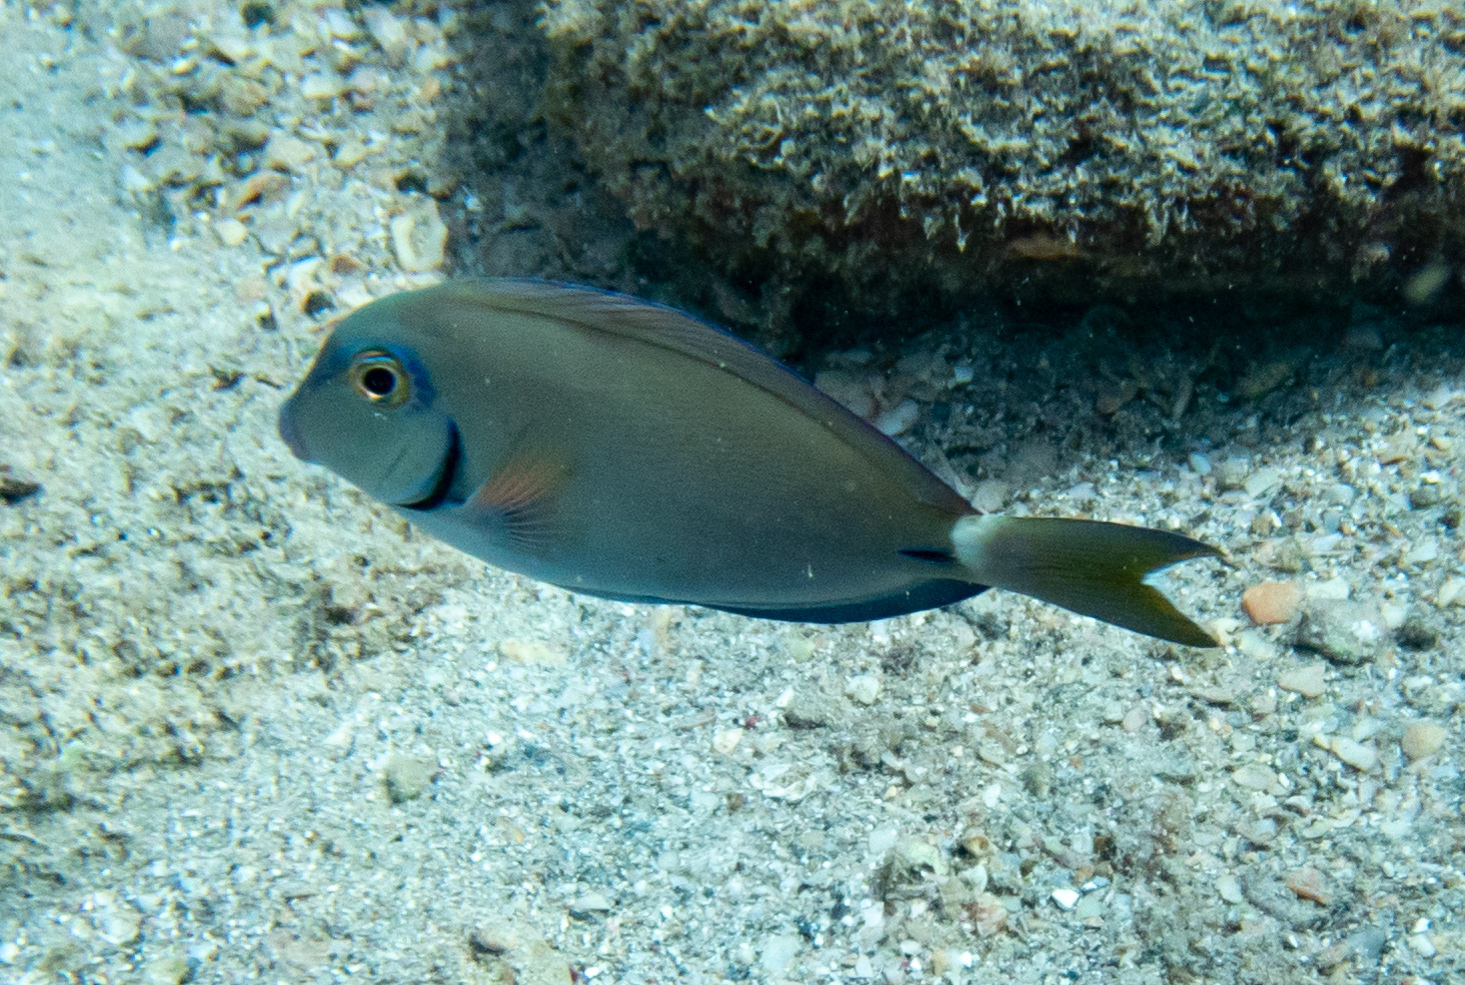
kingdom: Animalia
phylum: Chordata
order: Perciformes
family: Acanthuridae
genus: Acanthurus
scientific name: Acanthurus bahianus
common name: Ocean surgeon
